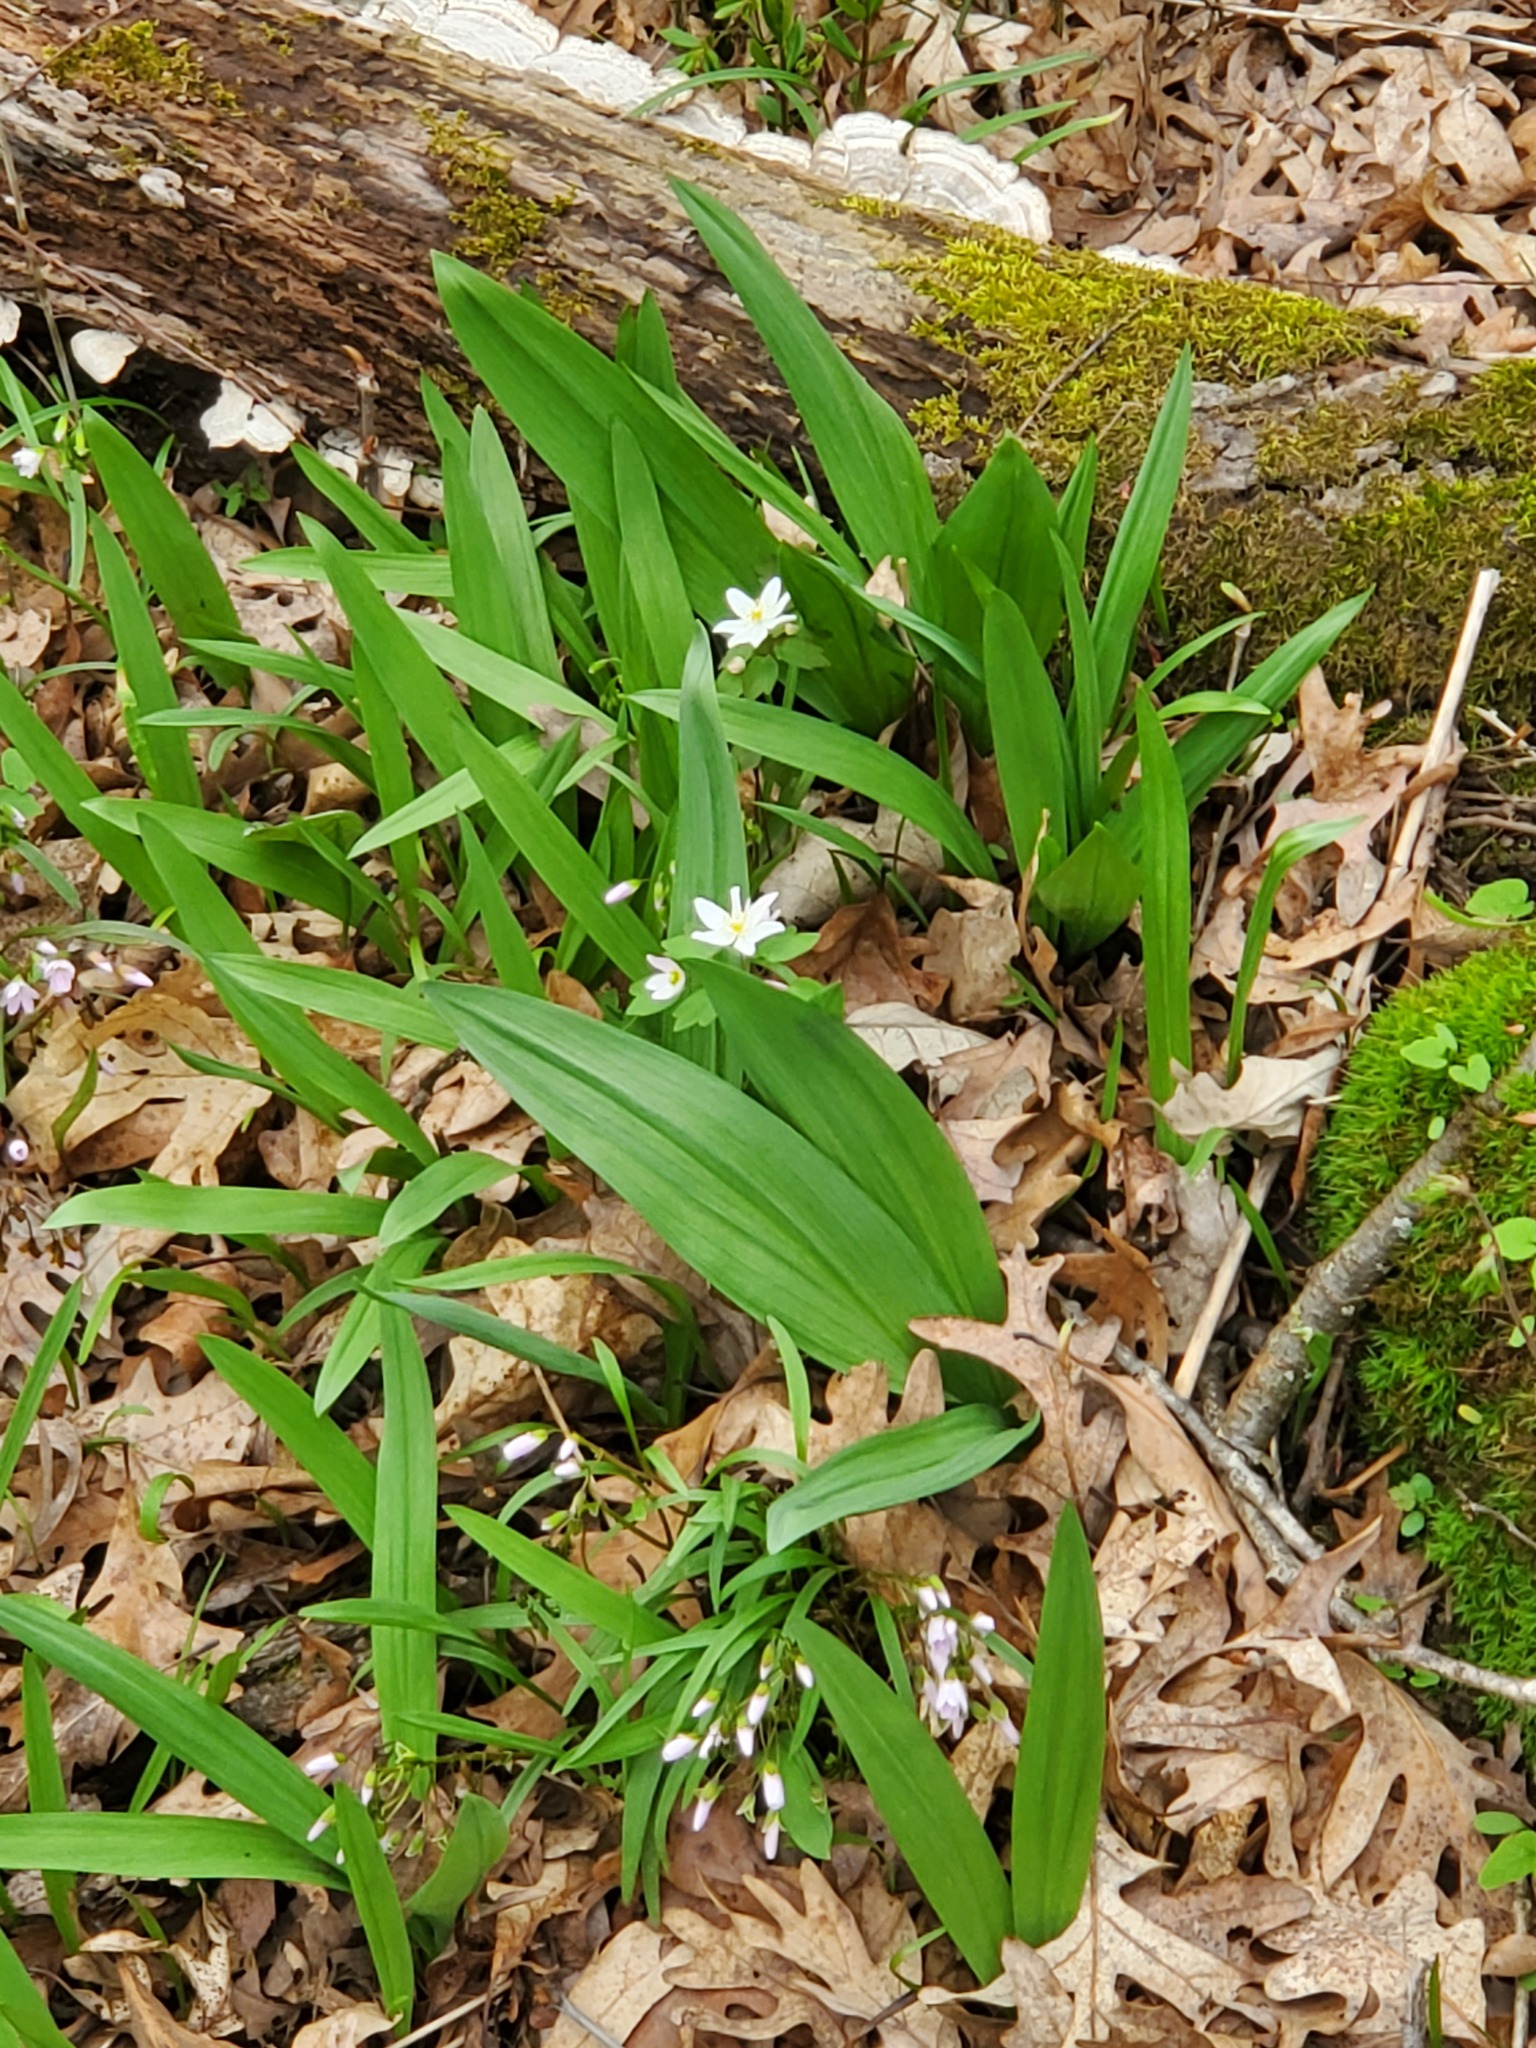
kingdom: Plantae
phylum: Tracheophyta
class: Liliopsida
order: Asparagales
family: Amaryllidaceae
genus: Allium
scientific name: Allium tricoccum
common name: Ramp
